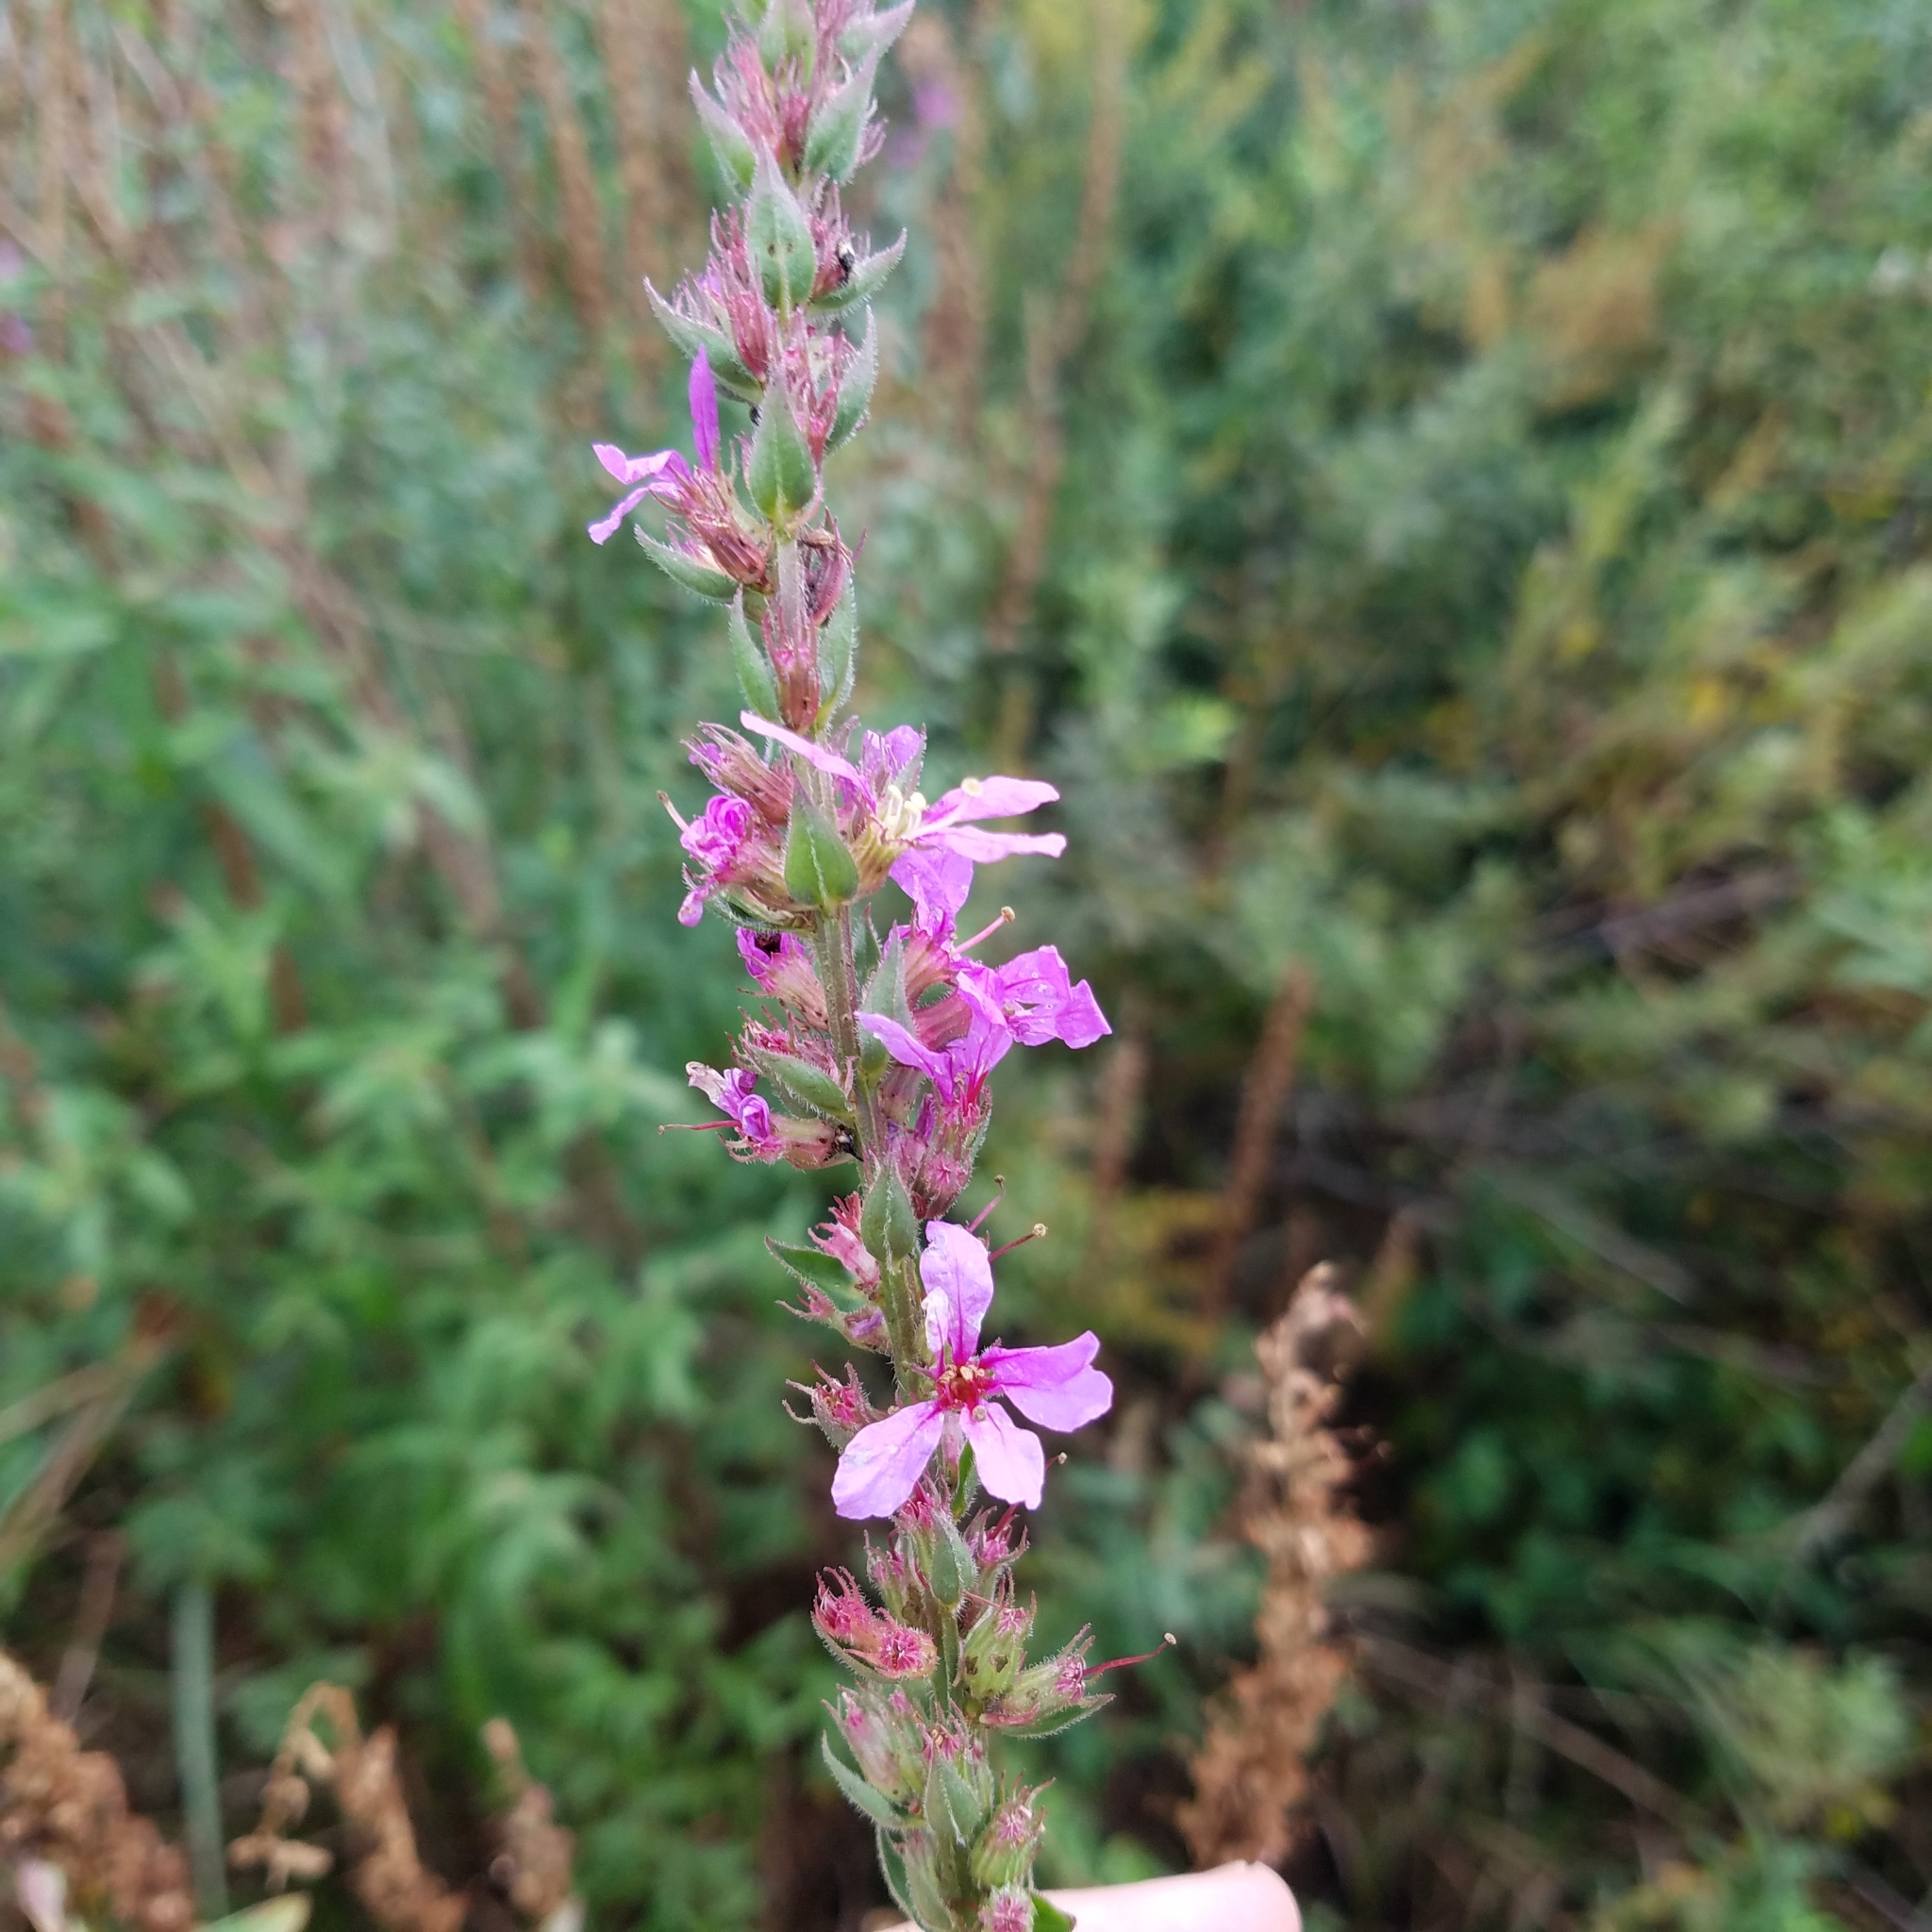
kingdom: Plantae
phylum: Tracheophyta
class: Magnoliopsida
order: Myrtales
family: Lythraceae
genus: Lythrum
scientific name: Lythrum salicaria
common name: Purple loosestrife
